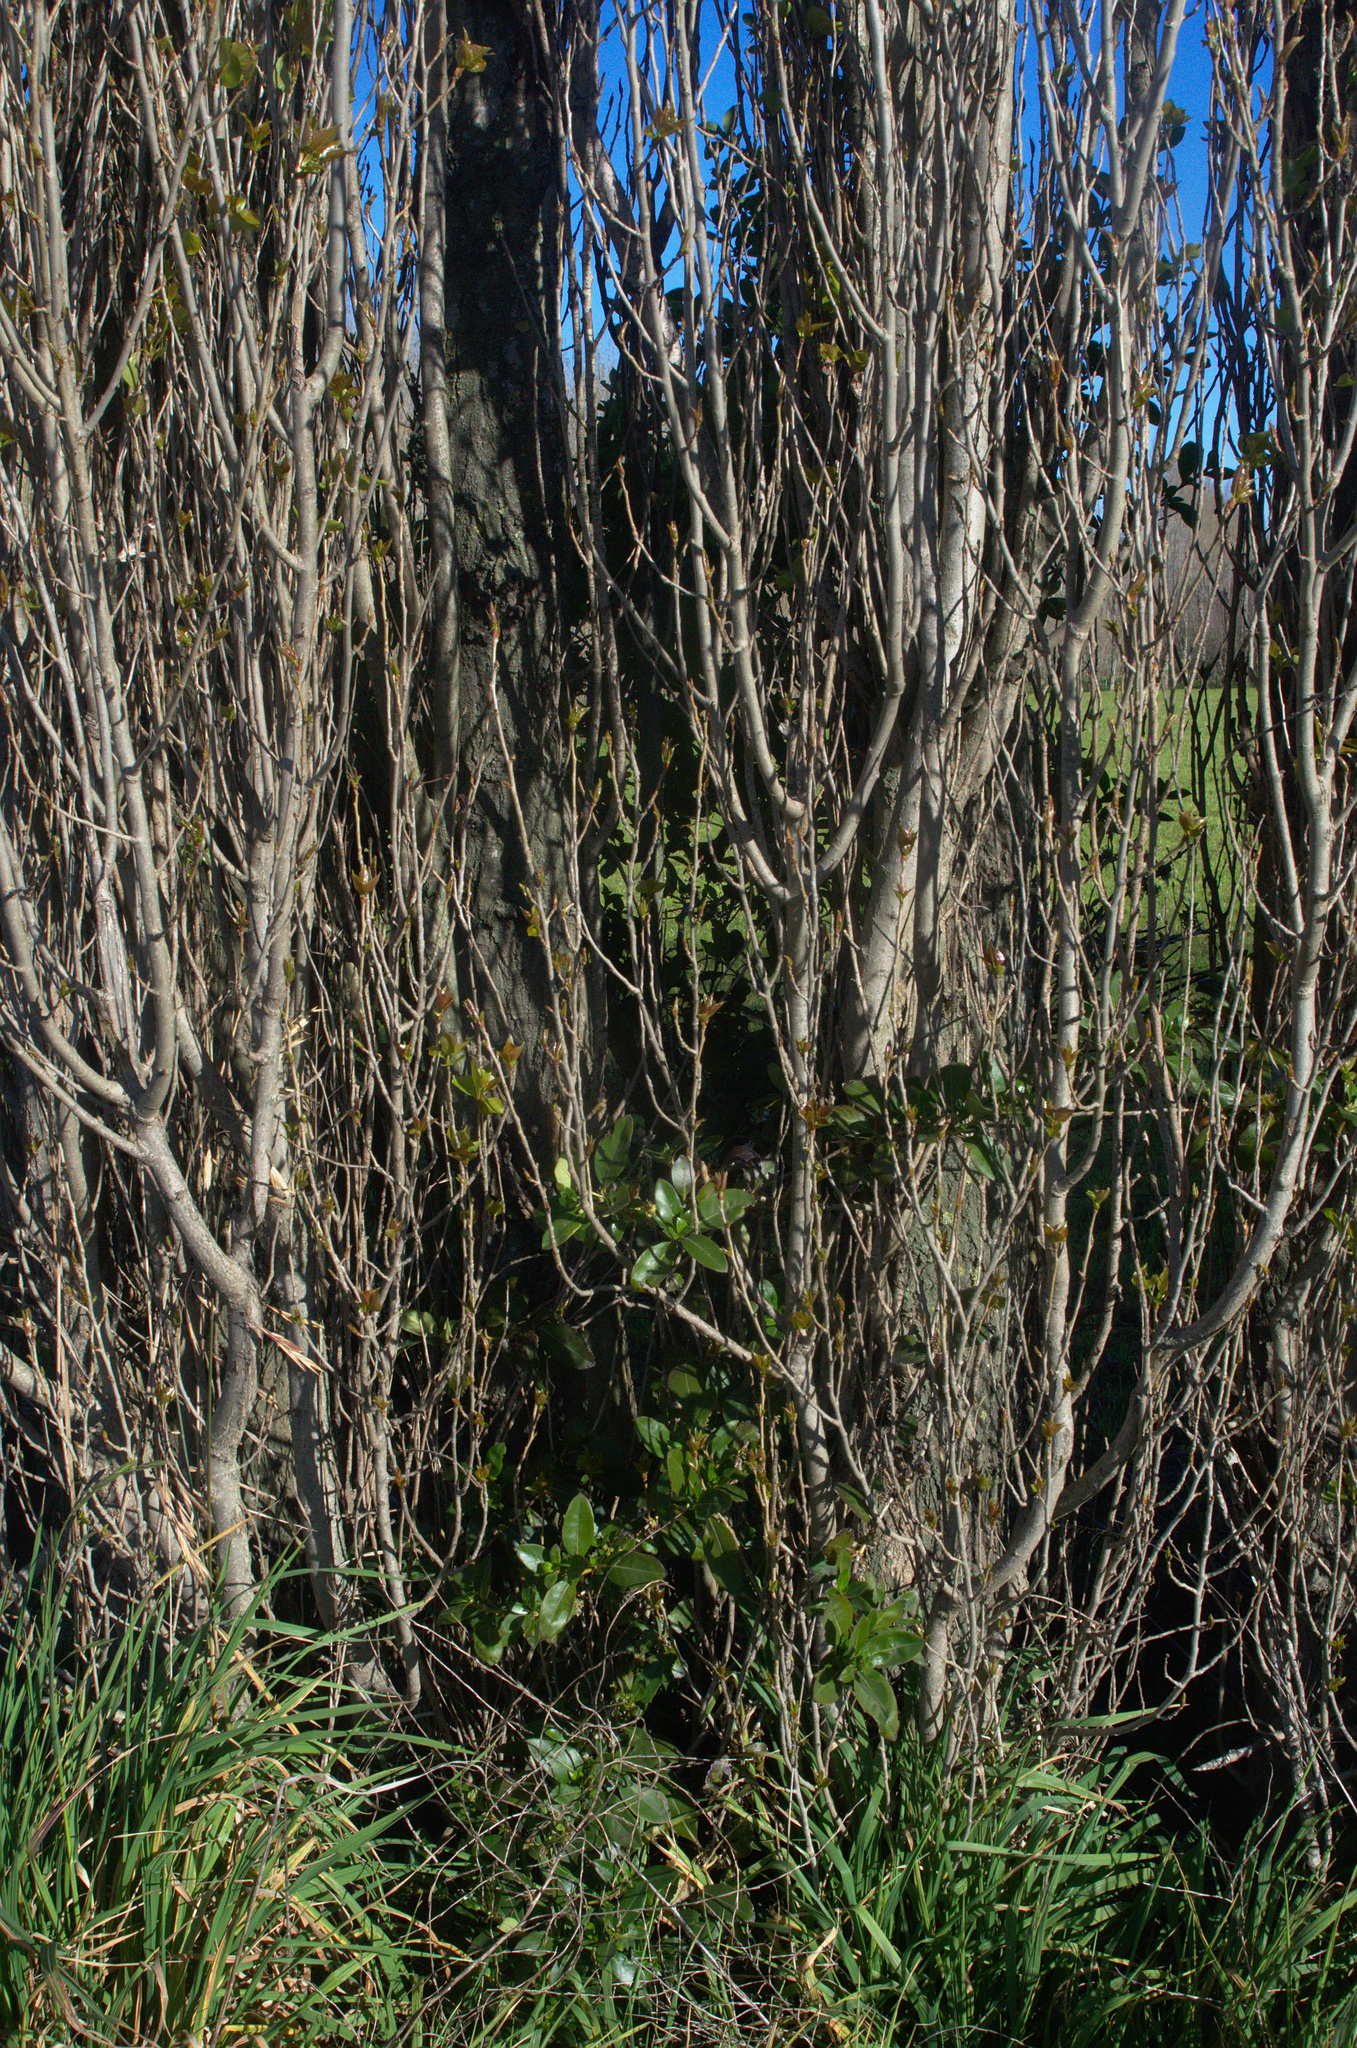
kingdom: Plantae
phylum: Tracheophyta
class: Magnoliopsida
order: Gentianales
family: Rubiaceae
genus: Coprosma
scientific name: Coprosma robusta
